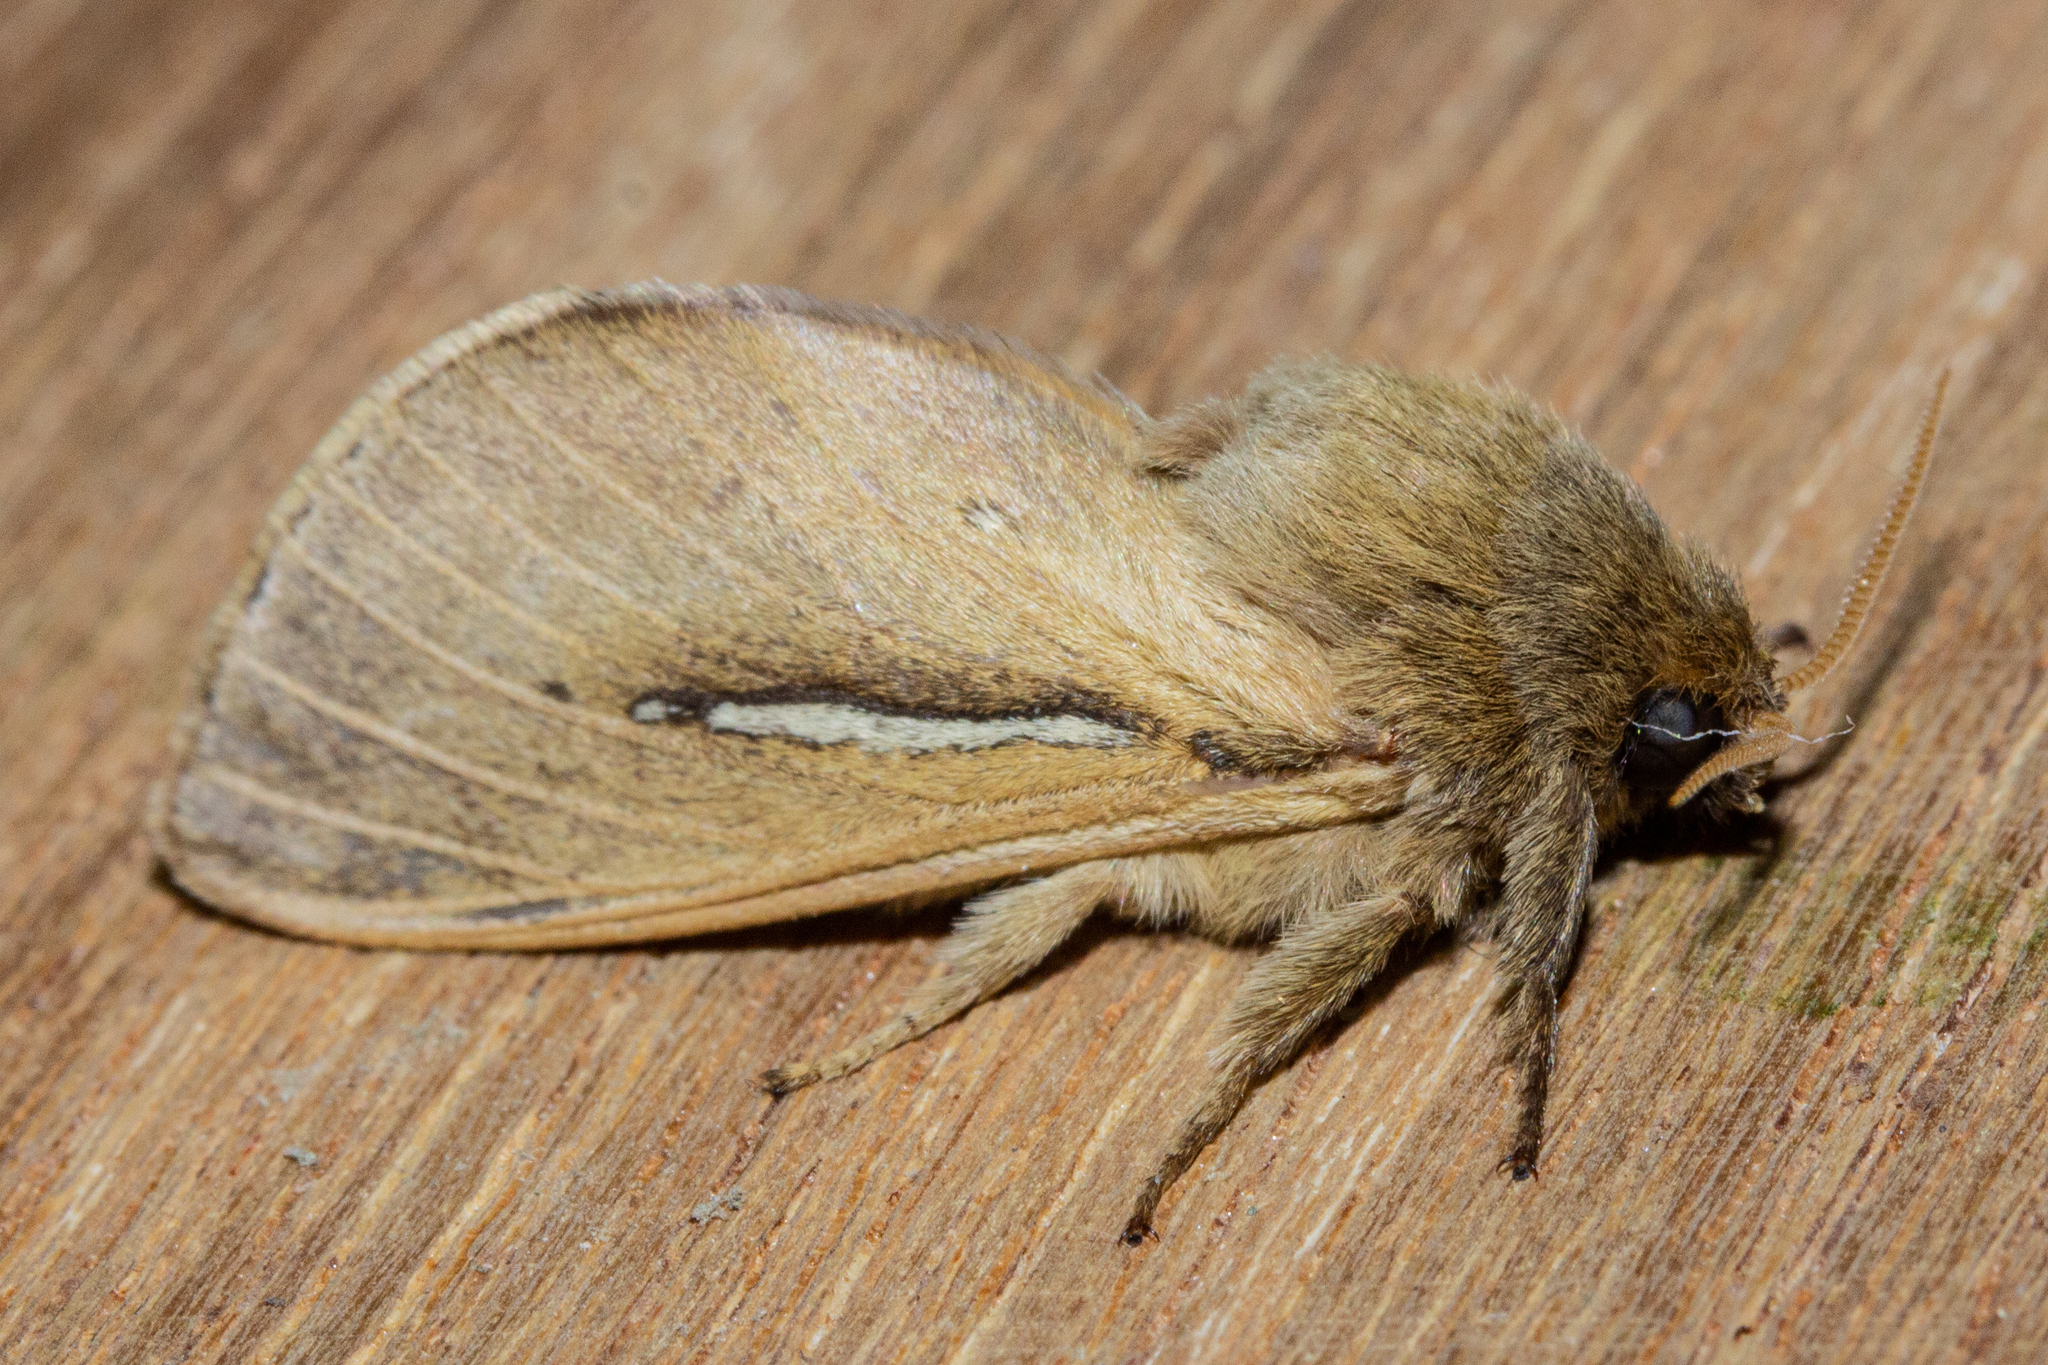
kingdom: Animalia
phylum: Arthropoda
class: Insecta
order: Lepidoptera
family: Hepialidae
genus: Wiseana
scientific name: Wiseana umbraculatus
